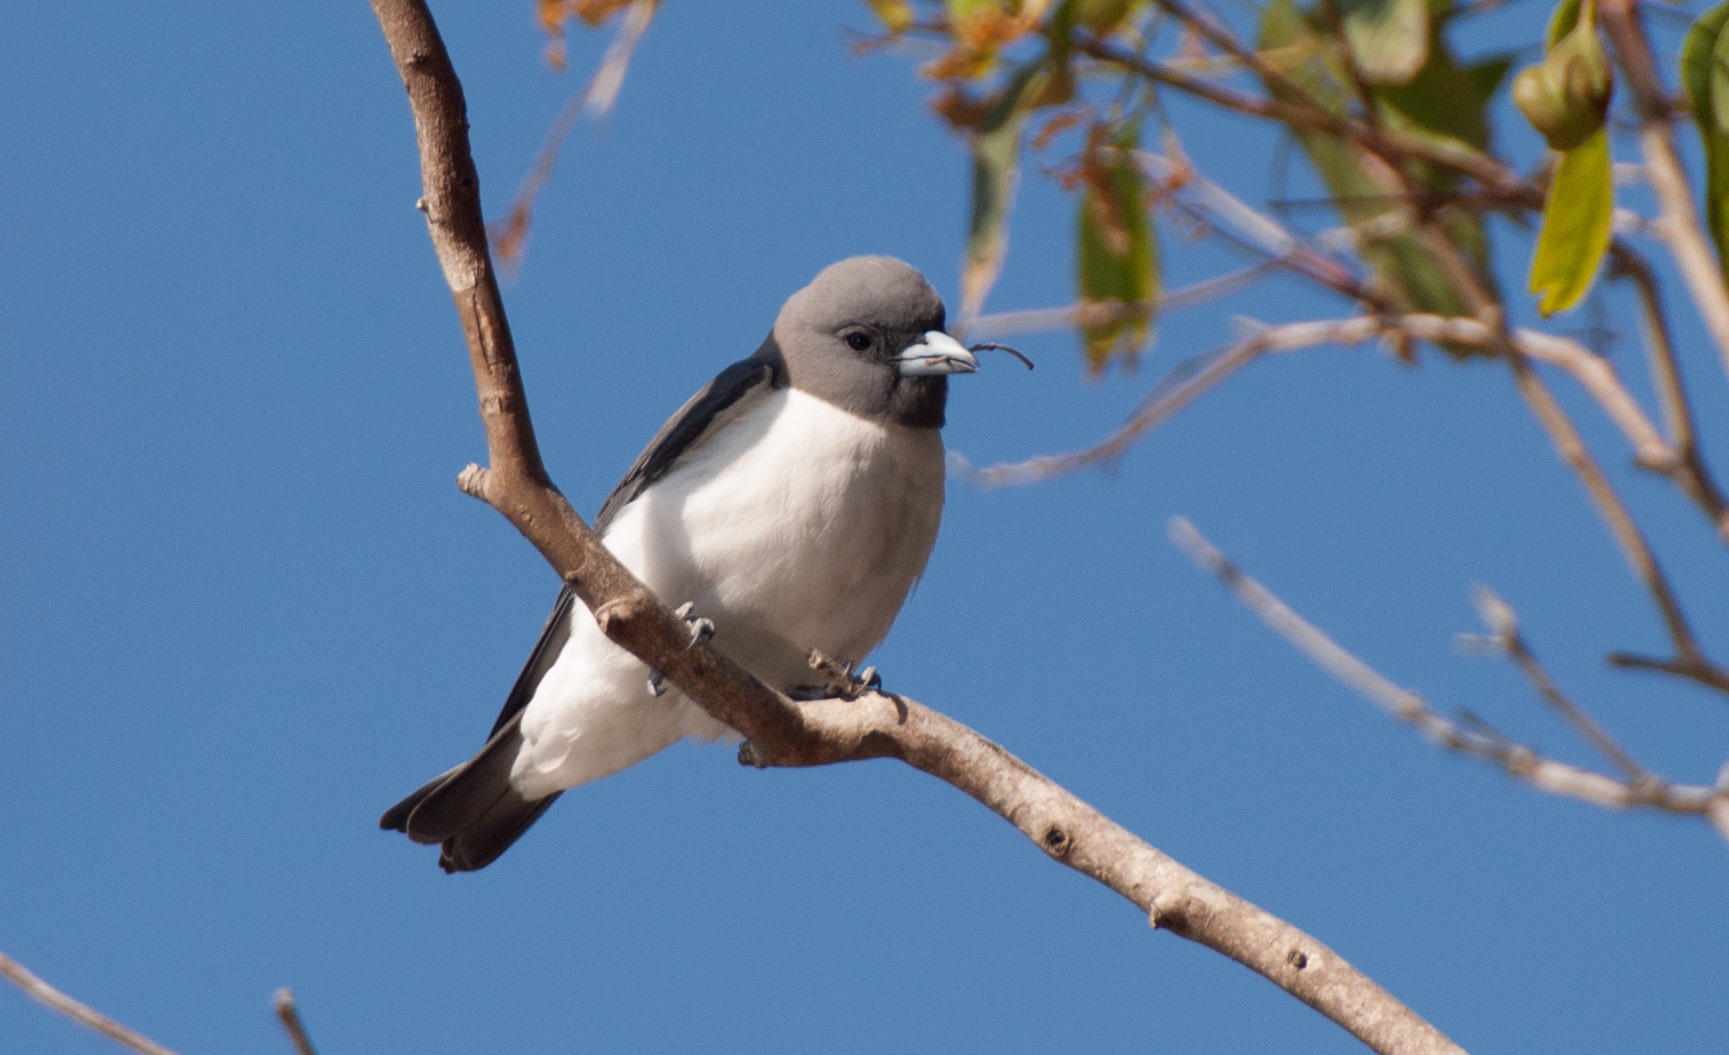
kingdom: Animalia
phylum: Chordata
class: Aves
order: Passeriformes
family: Artamidae
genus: Artamus
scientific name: Artamus leucoryn
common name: White-breasted woodswallow
